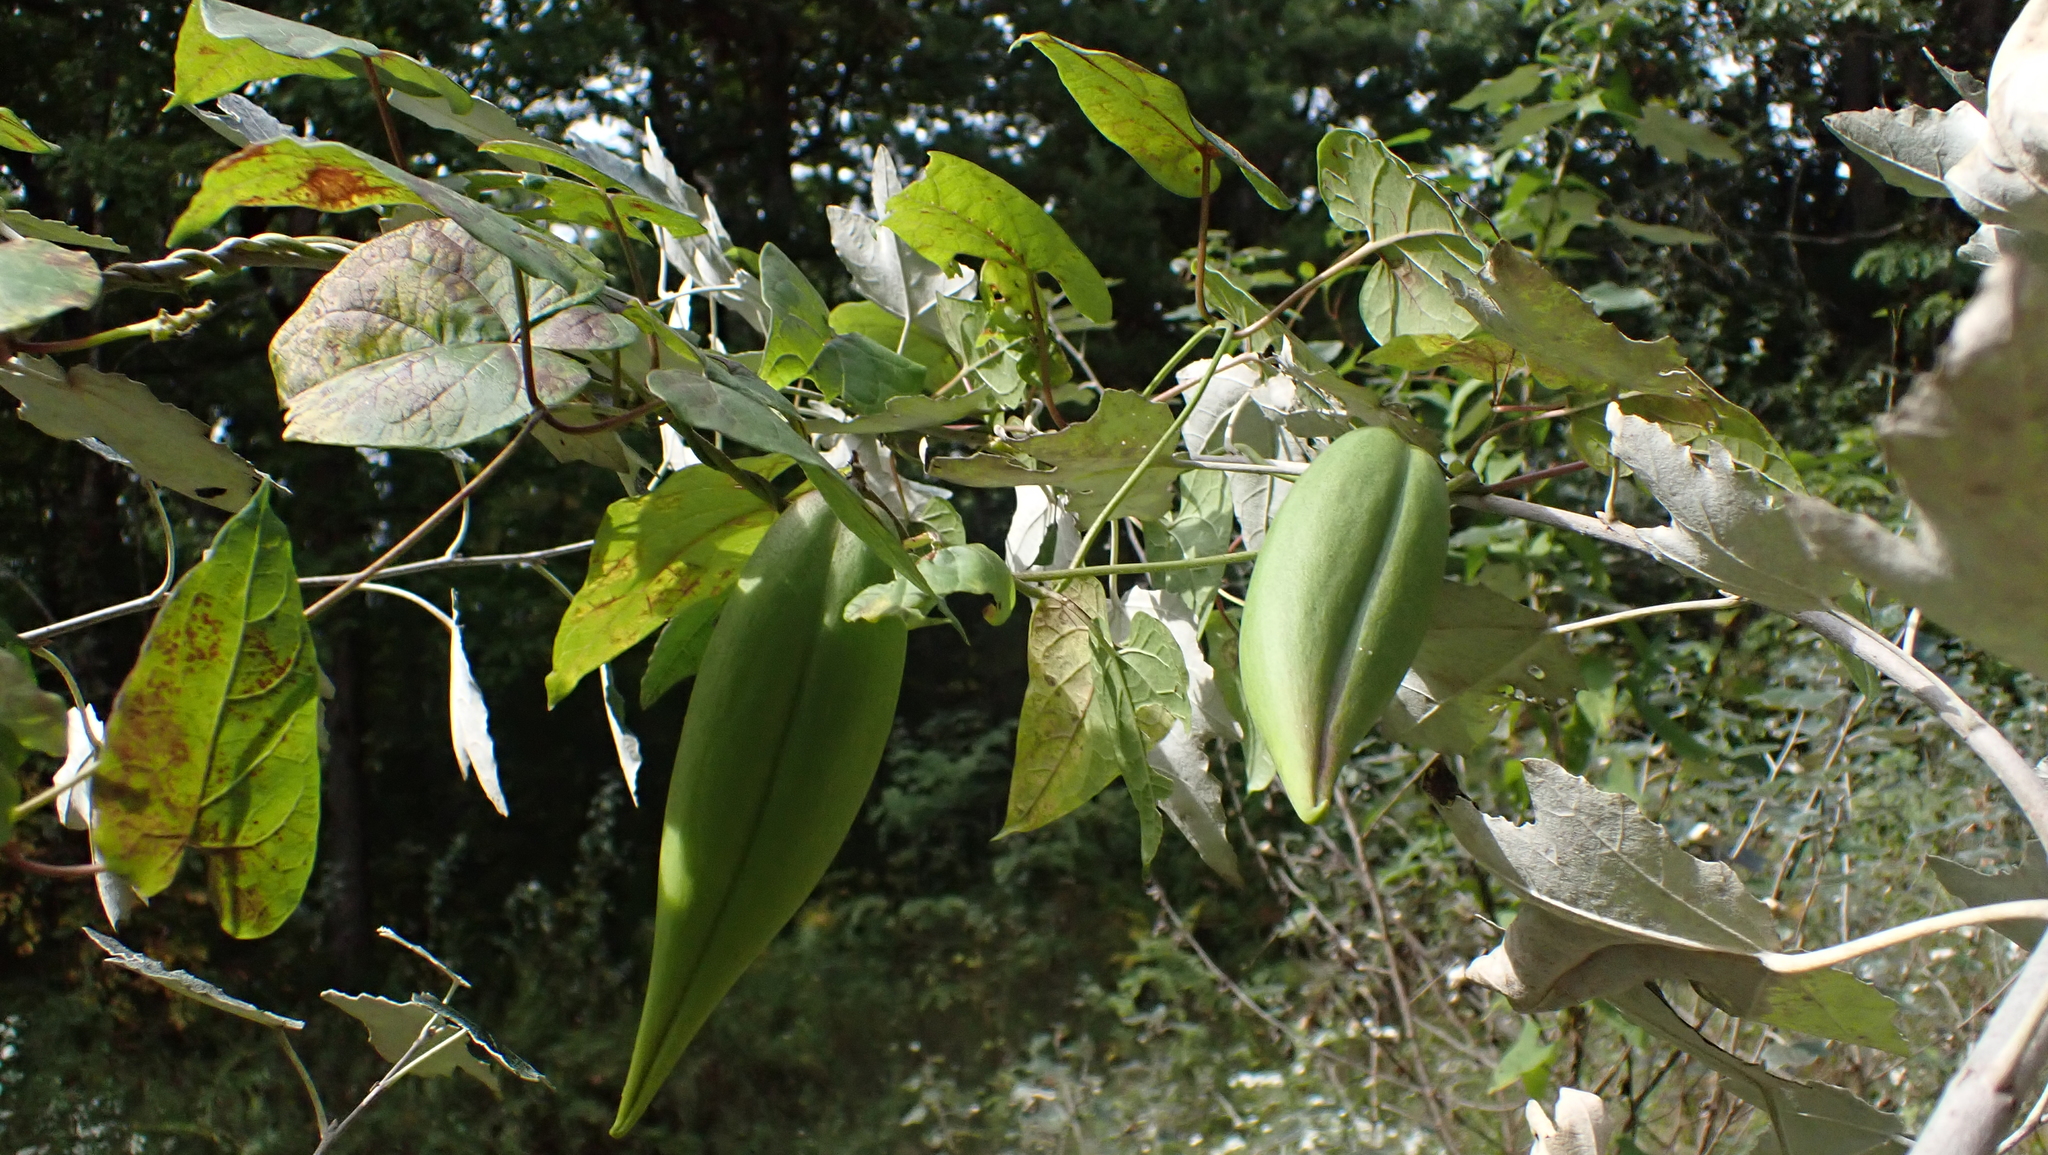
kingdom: Plantae
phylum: Tracheophyta
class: Magnoliopsida
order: Gentianales
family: Apocynaceae
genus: Cynanchum
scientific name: Cynanchum laeve
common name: Sandvine
